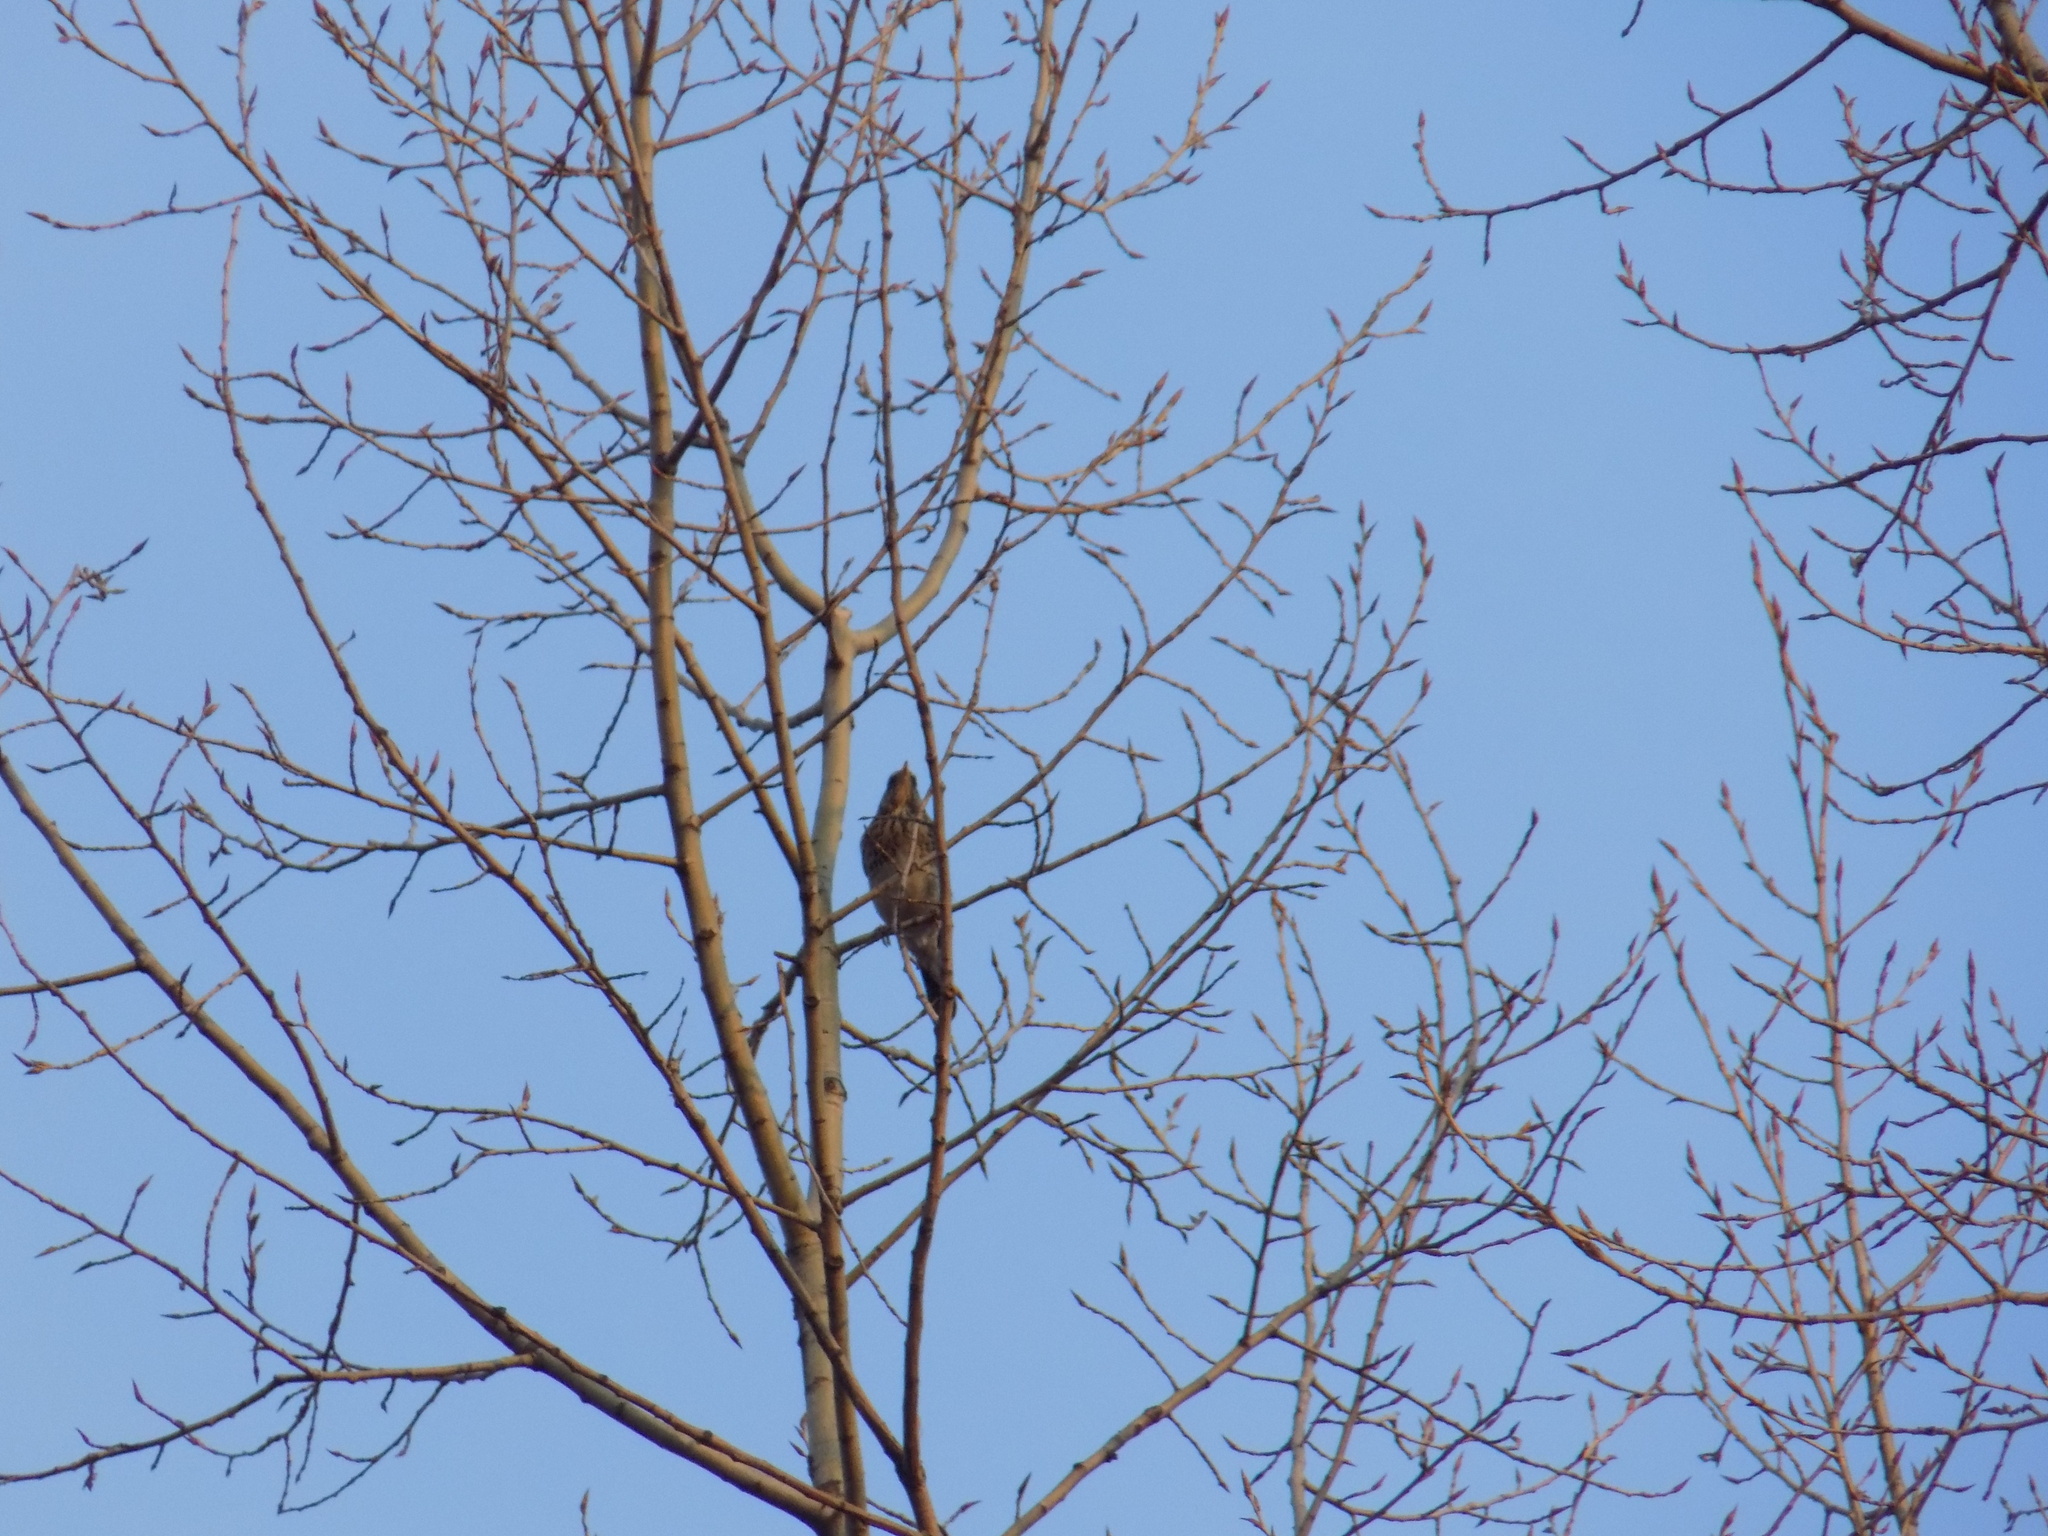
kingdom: Animalia
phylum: Chordata
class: Aves
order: Passeriformes
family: Turdidae
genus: Turdus
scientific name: Turdus pilaris
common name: Fieldfare
